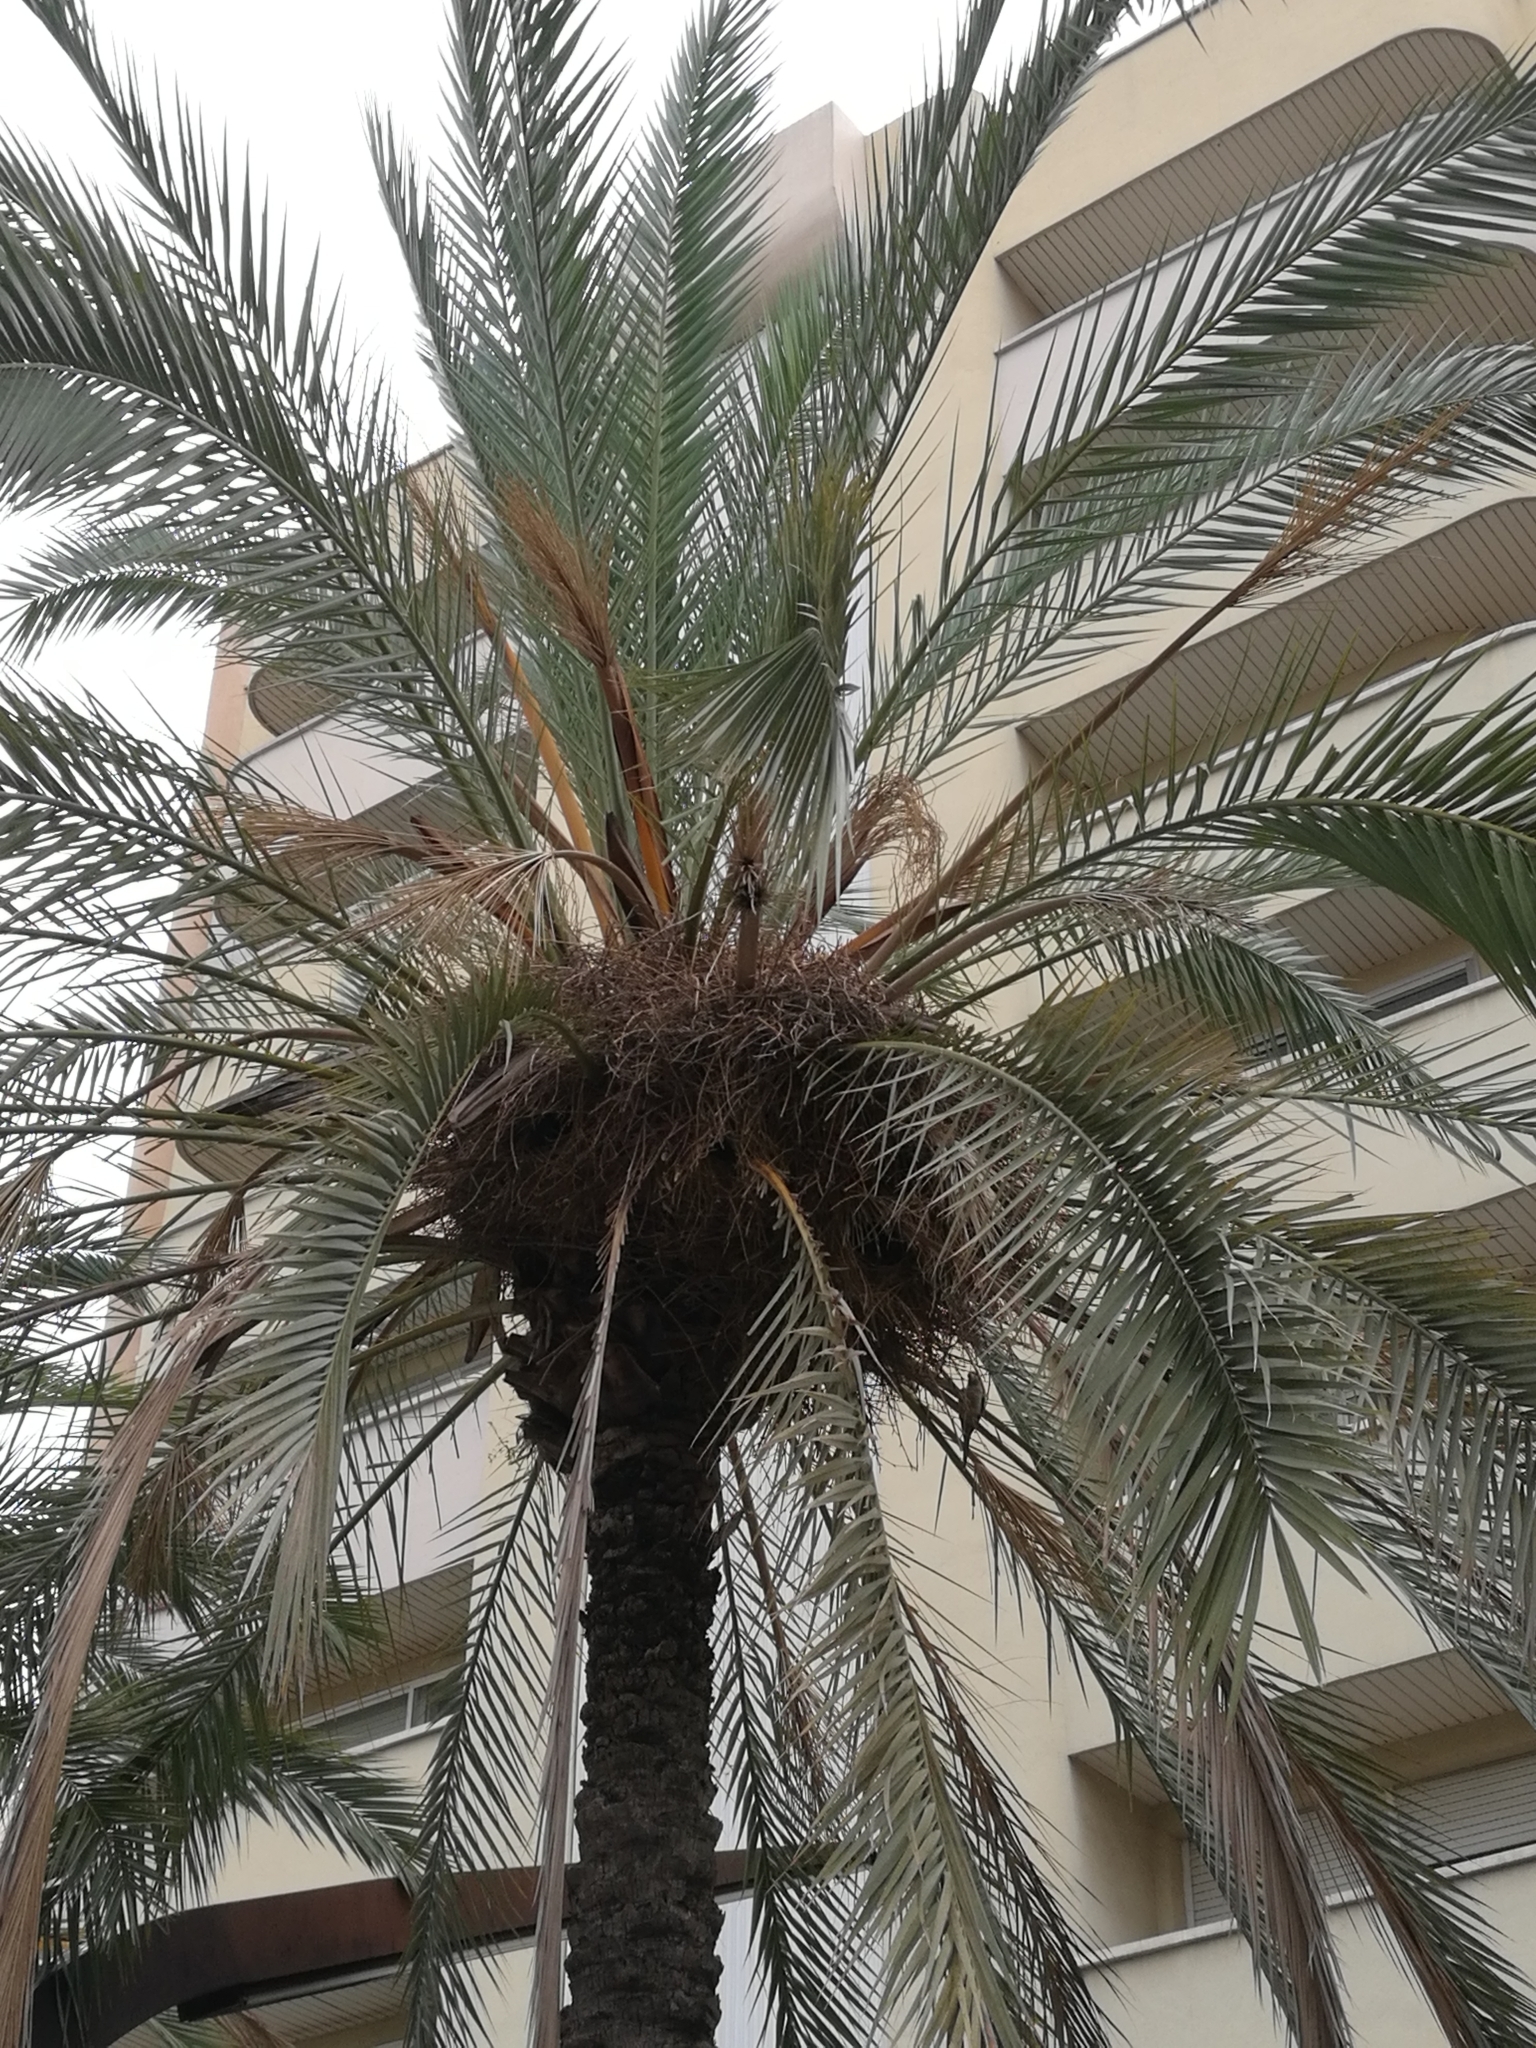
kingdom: Animalia
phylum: Chordata
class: Aves
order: Psittaciformes
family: Psittacidae
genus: Myiopsitta
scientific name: Myiopsitta monachus
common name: Monk parakeet
